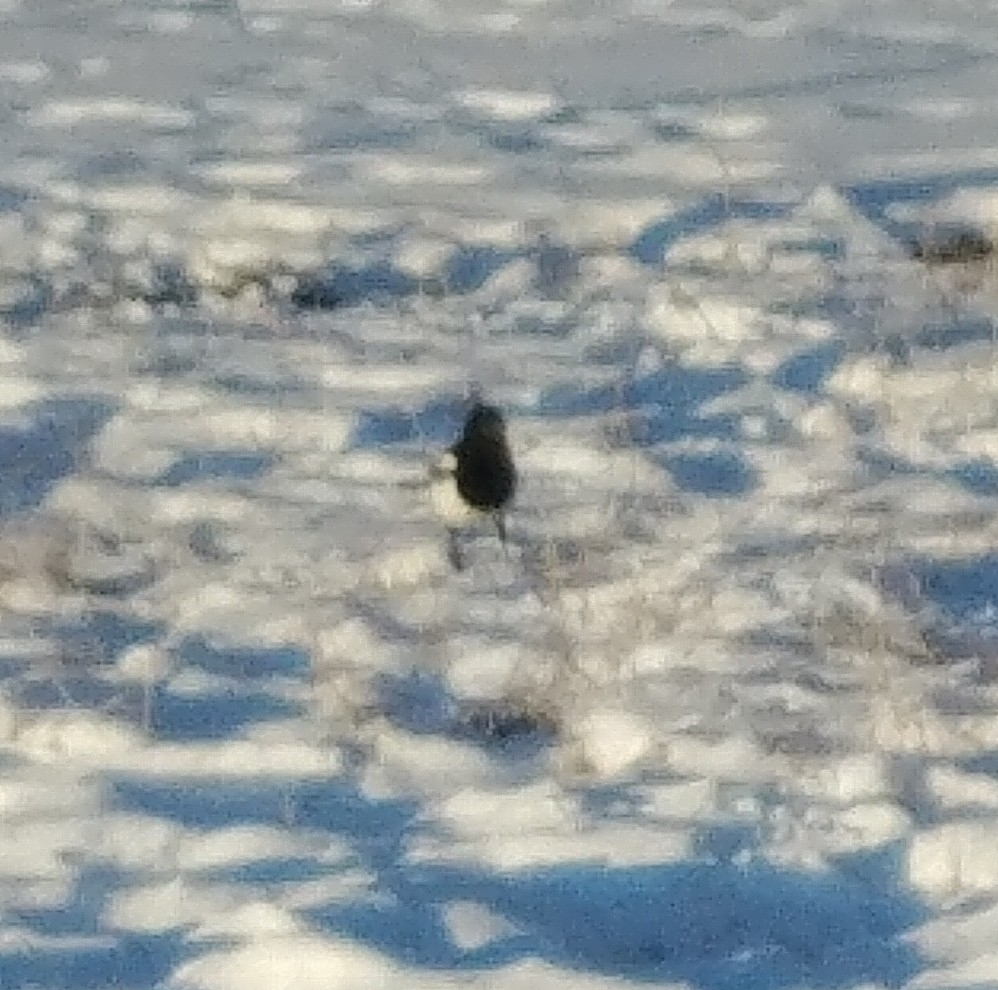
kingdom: Animalia
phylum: Chordata
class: Aves
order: Passeriformes
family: Corvidae
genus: Pica
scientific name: Pica hudsonia
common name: Black-billed magpie
